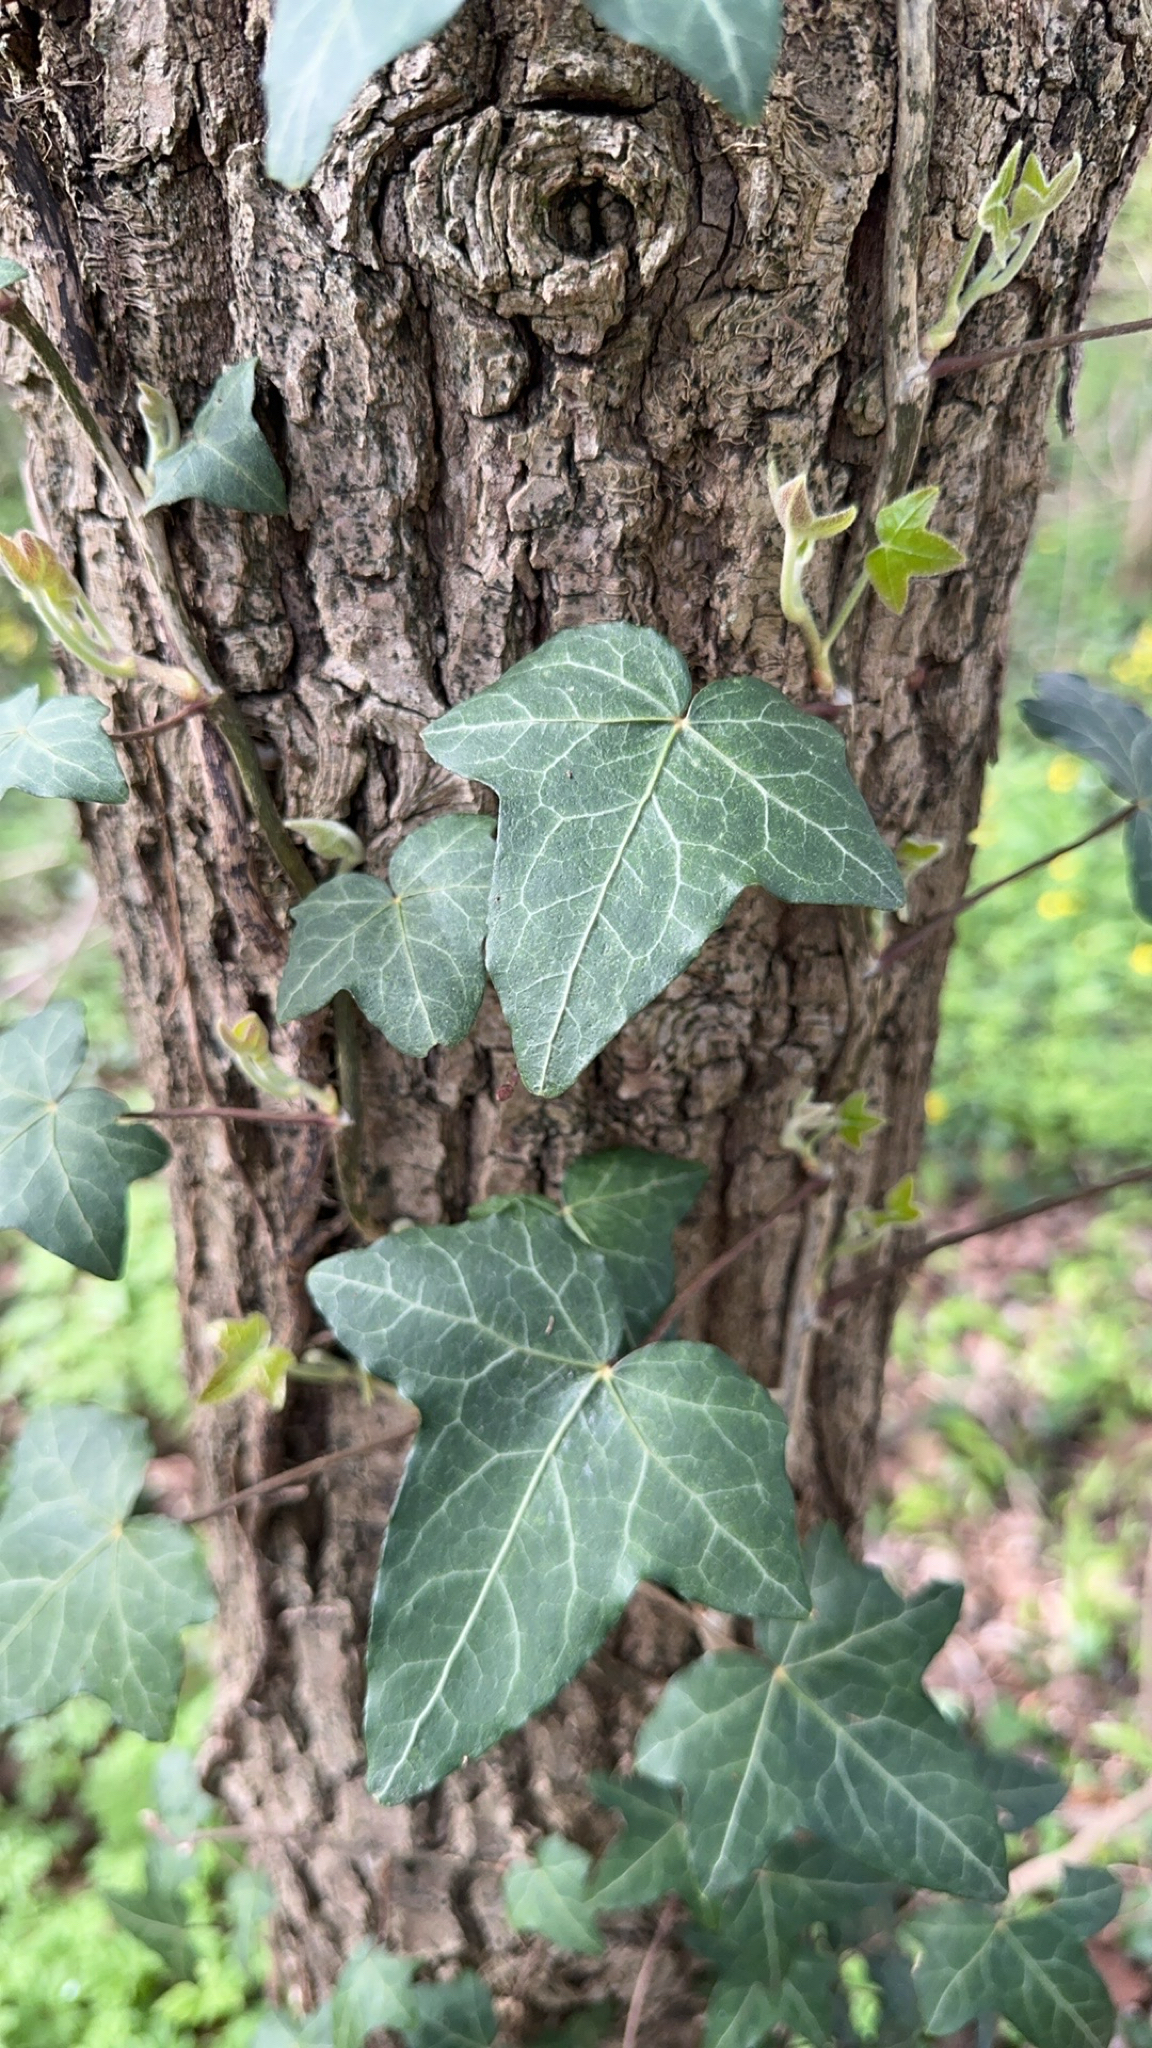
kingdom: Plantae
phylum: Tracheophyta
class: Magnoliopsida
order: Apiales
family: Araliaceae
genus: Hedera
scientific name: Hedera helix
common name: Ivy
